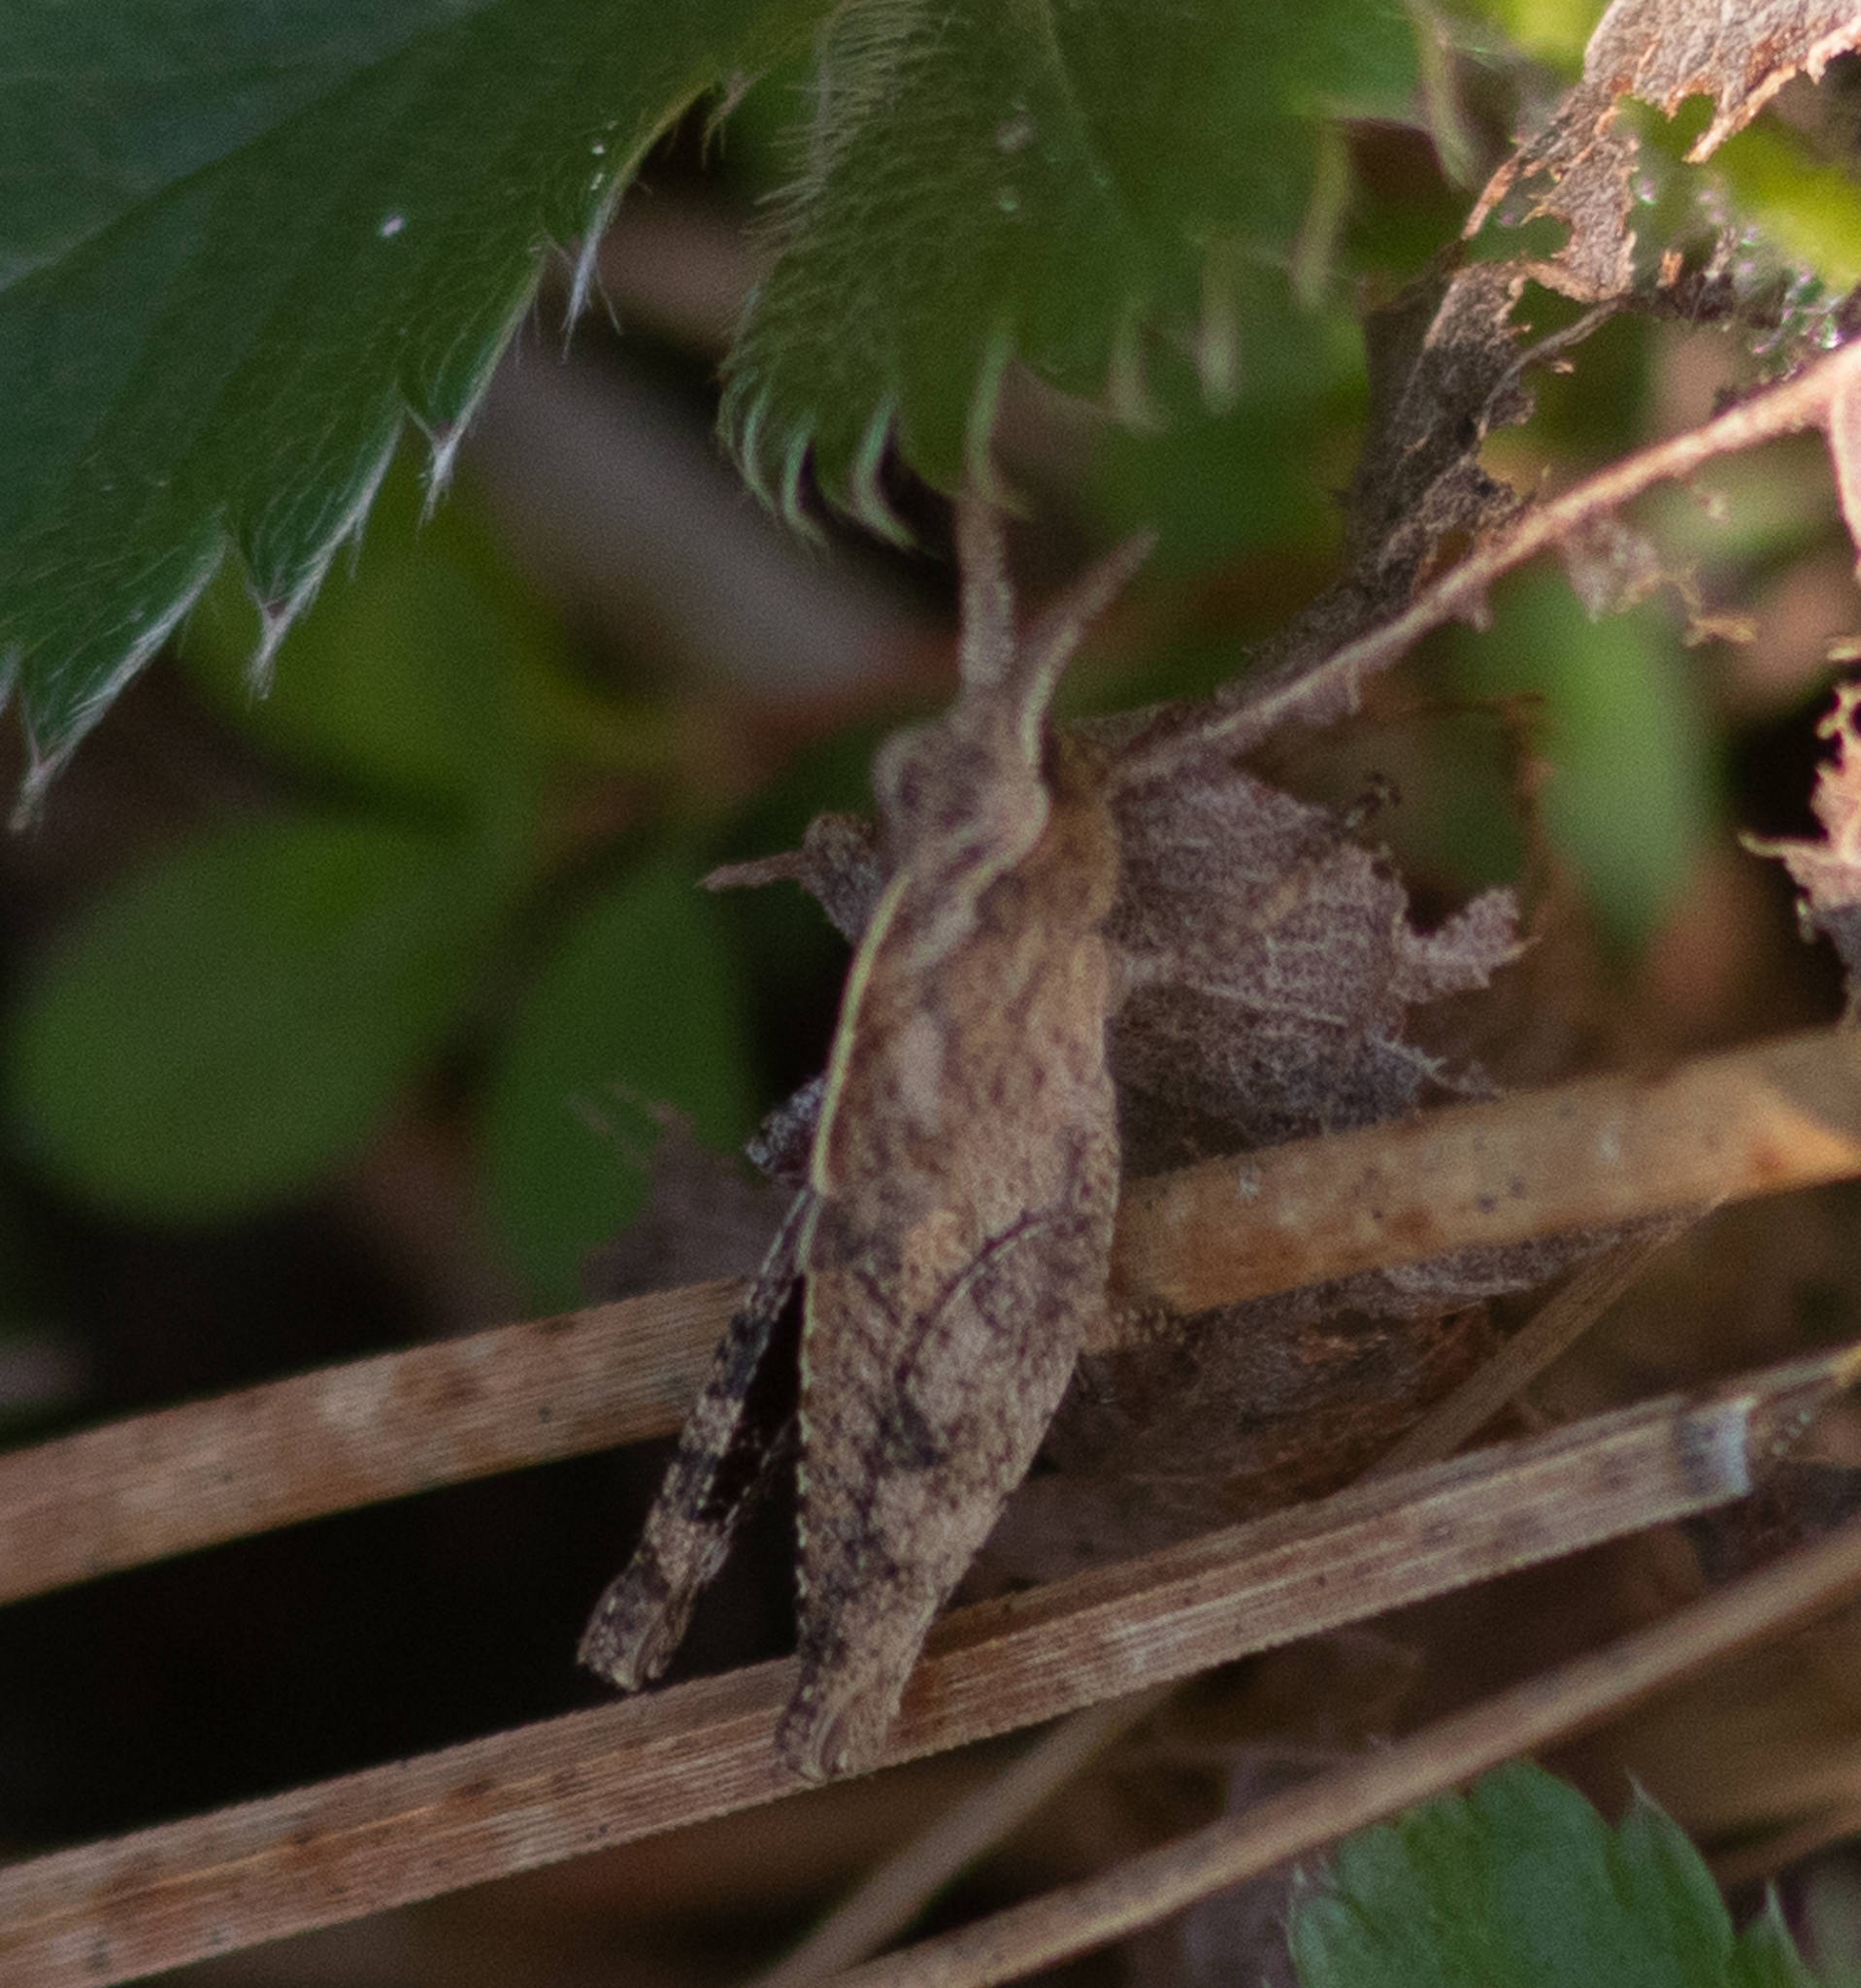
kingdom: Animalia
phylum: Arthropoda
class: Insecta
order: Orthoptera
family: Acrididae
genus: Chortophaga
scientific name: Chortophaga viridifasciata
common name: Green-striped grasshopper
